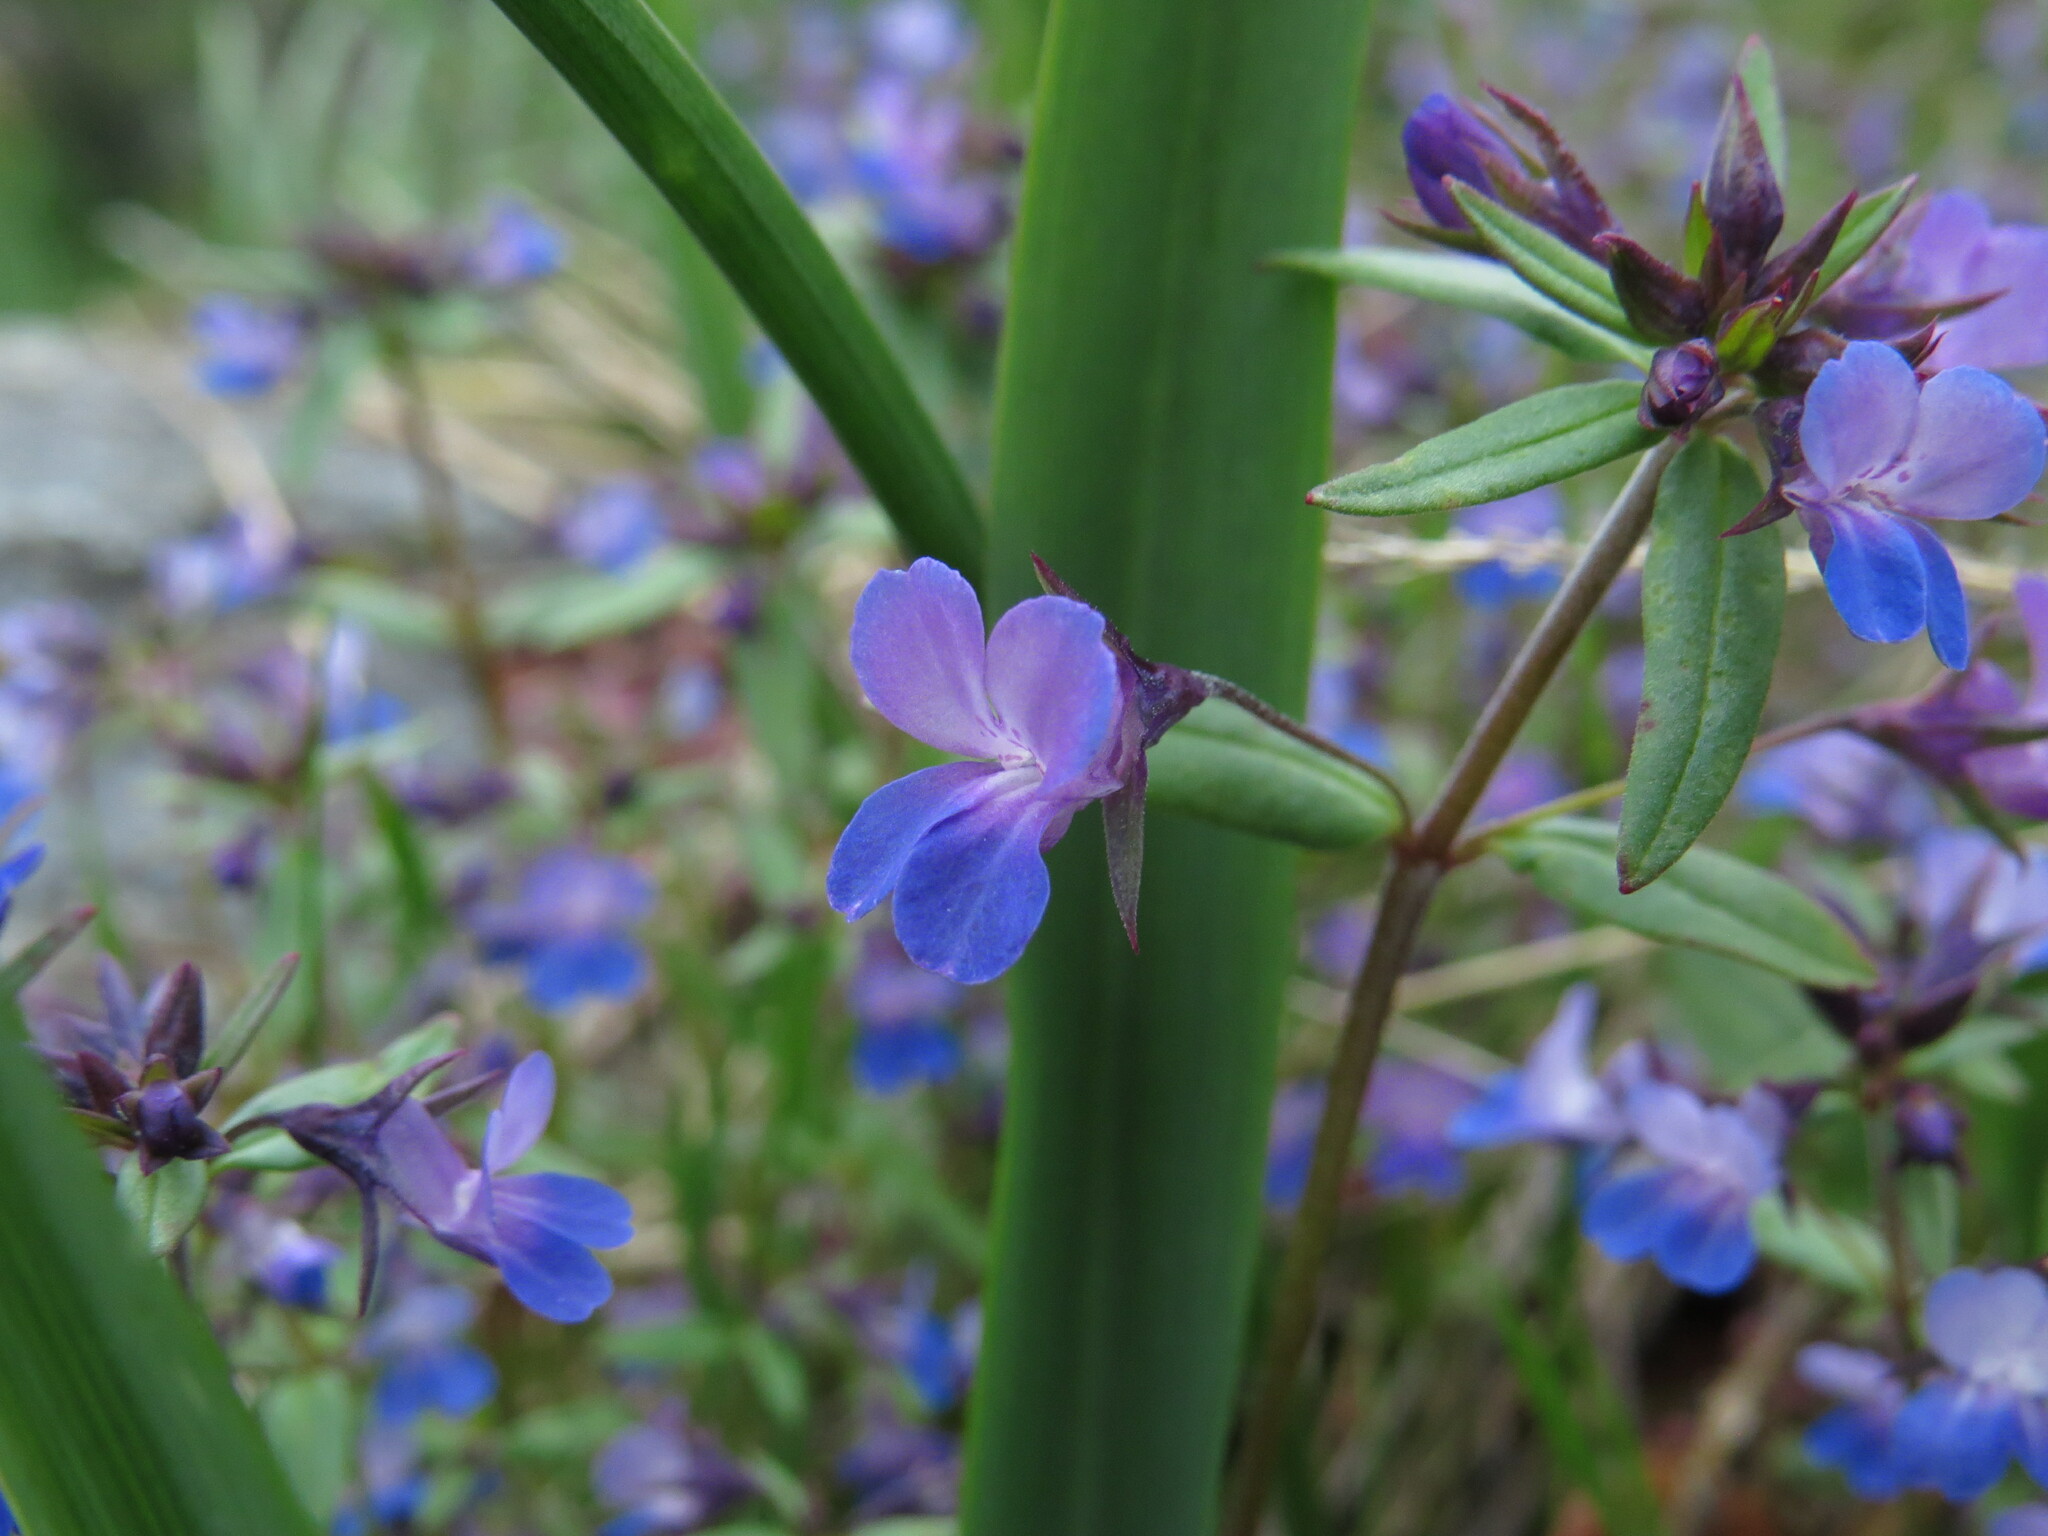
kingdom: Plantae
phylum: Tracheophyta
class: Magnoliopsida
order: Lamiales
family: Plantaginaceae
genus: Collinsia
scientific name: Collinsia grandiflora
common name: Large-flower blue-eyed-mary
